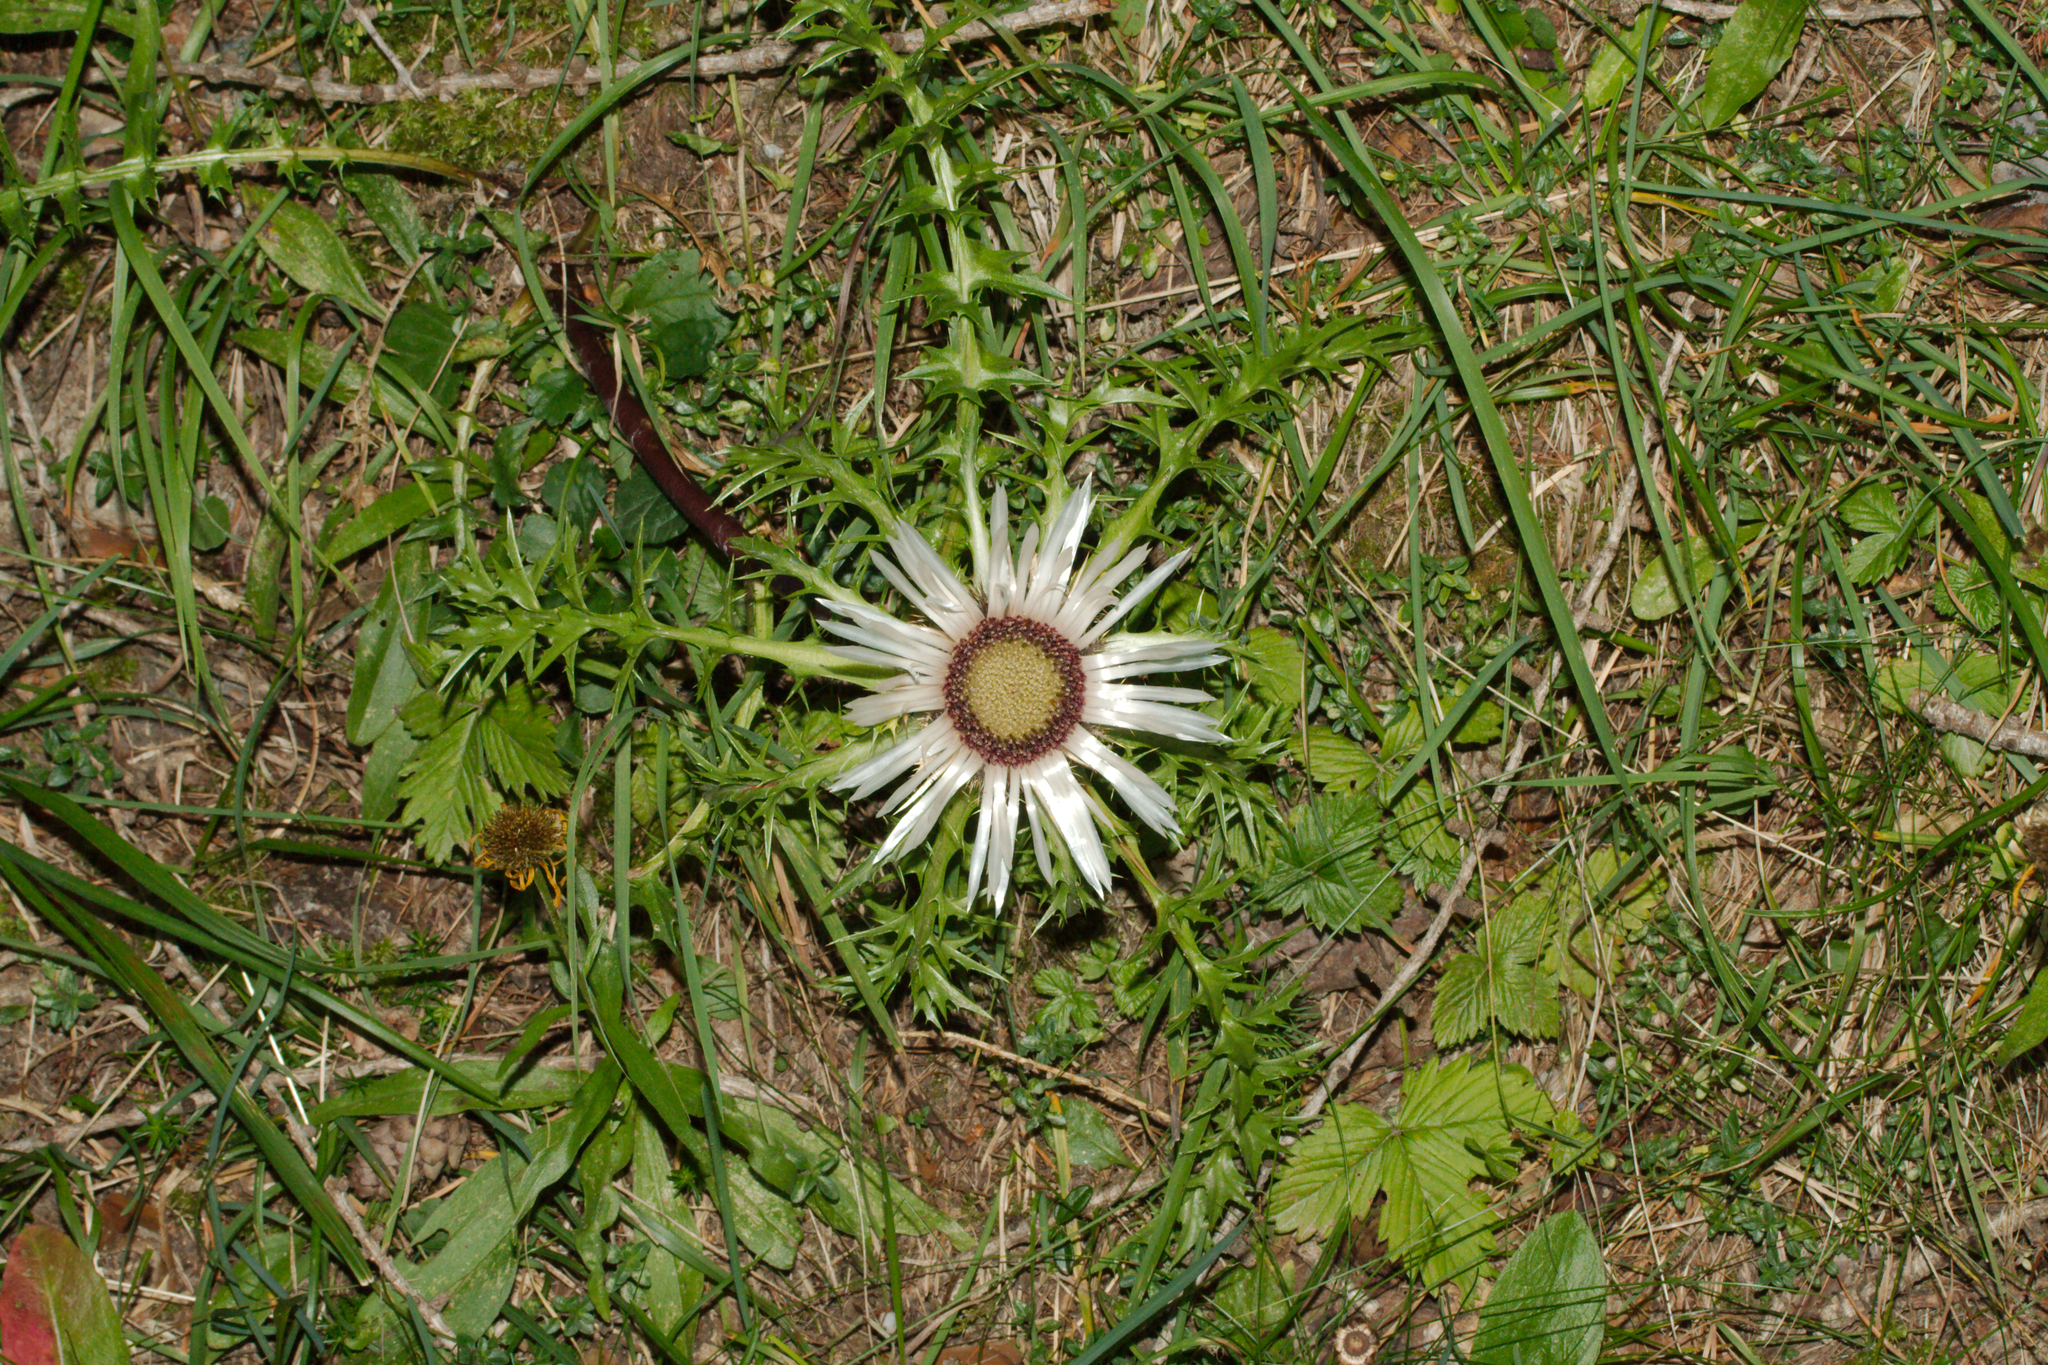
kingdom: Plantae
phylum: Tracheophyta
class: Magnoliopsida
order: Asterales
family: Asteraceae
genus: Carlina
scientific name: Carlina acaulis
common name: Stemless carline thistle
